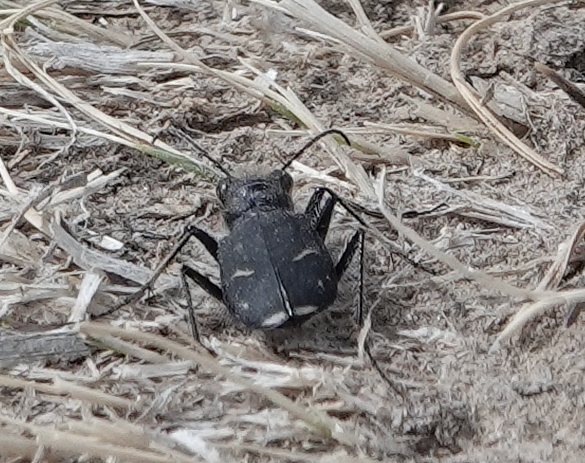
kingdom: Animalia
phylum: Arthropoda
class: Insecta
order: Coleoptera
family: Carabidae
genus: Cicindela
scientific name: Cicindela purpurea
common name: Cow path tiger beetle
